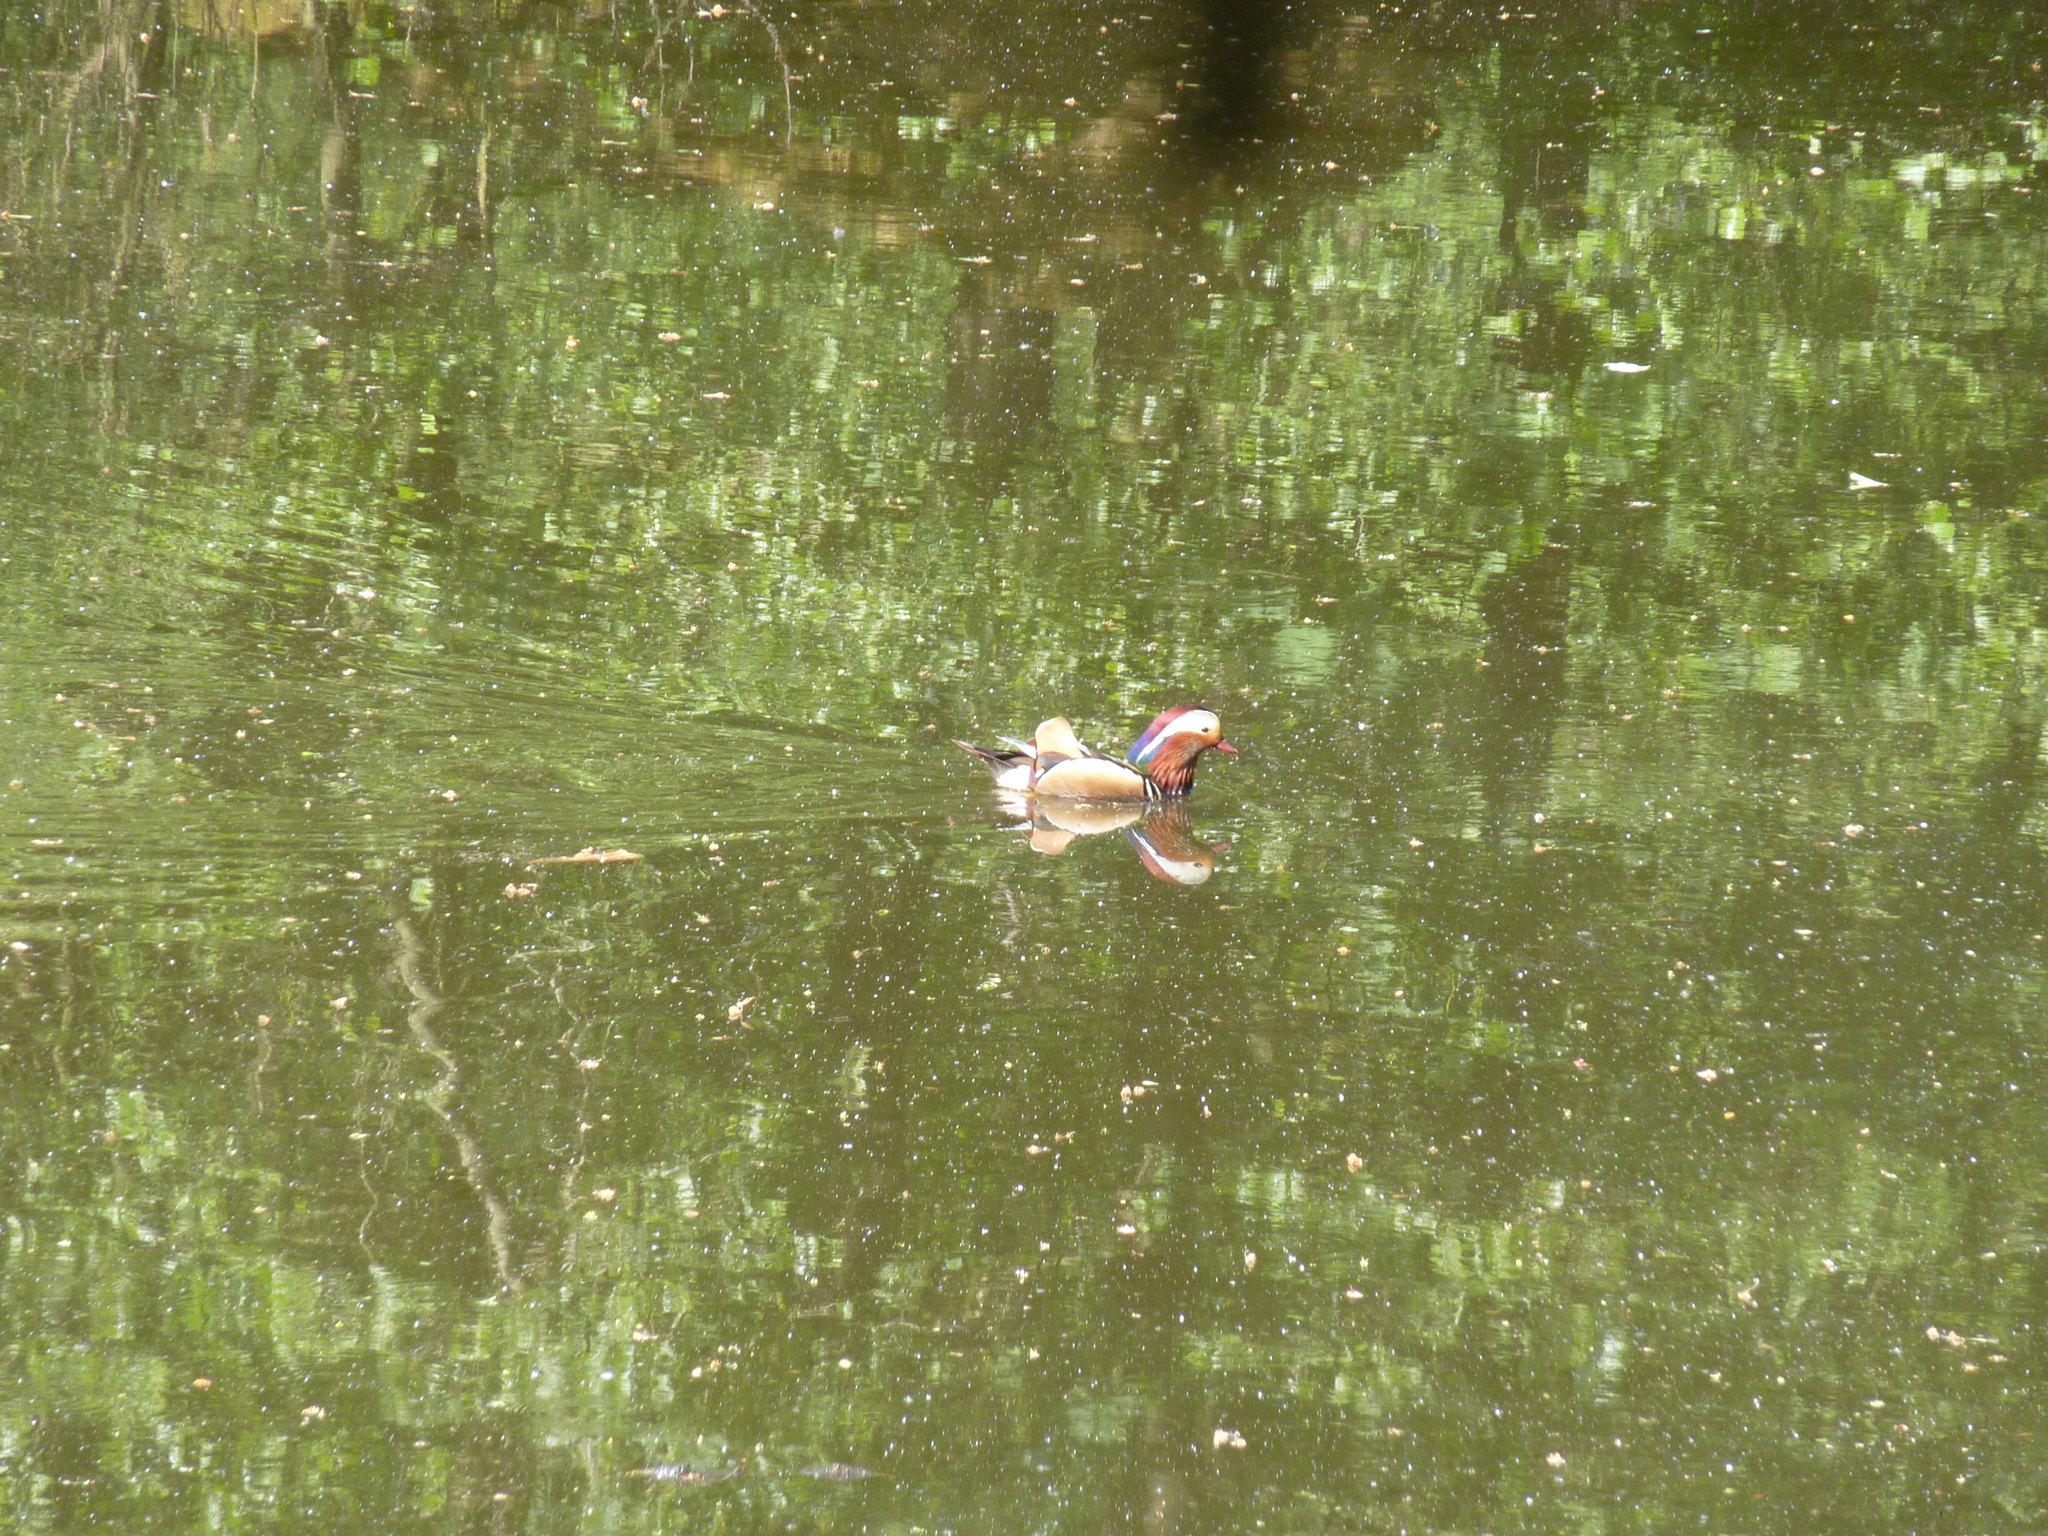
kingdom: Animalia
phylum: Chordata
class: Aves
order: Anseriformes
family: Anatidae
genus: Aix
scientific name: Aix galericulata
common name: Mandarin duck
